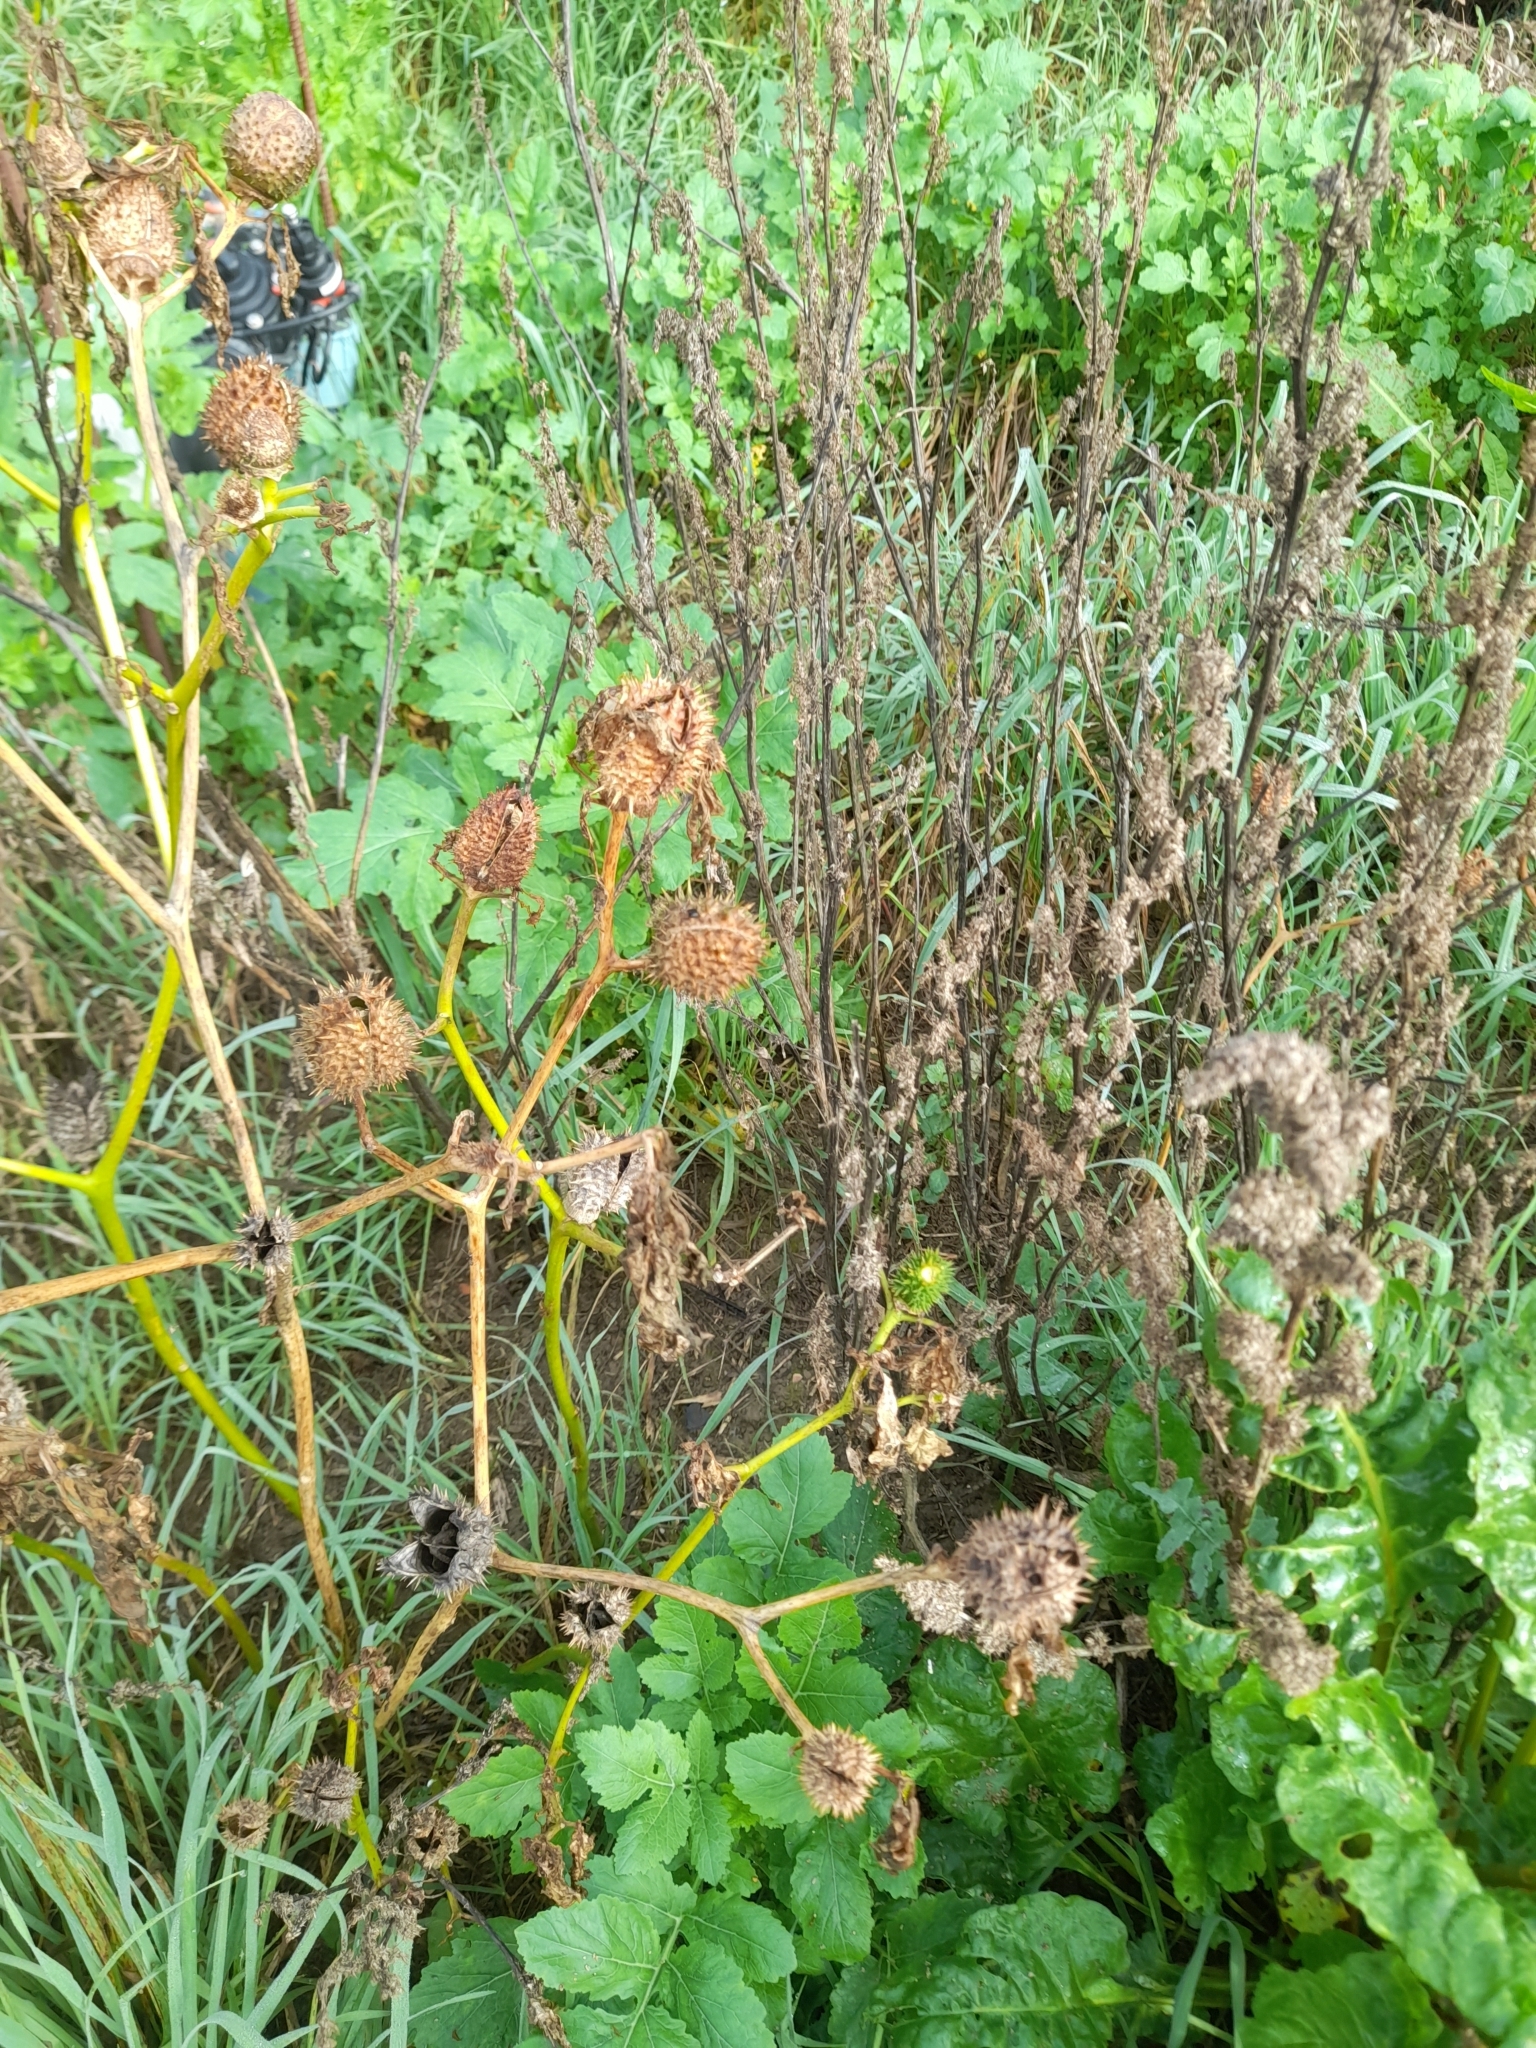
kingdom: Plantae
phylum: Tracheophyta
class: Magnoliopsida
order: Solanales
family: Solanaceae
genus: Datura
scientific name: Datura stramonium
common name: Thorn-apple
